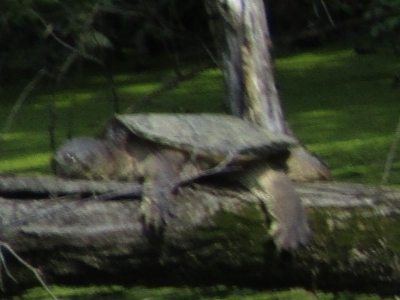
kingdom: Animalia
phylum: Chordata
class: Testudines
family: Chelydridae
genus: Chelydra
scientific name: Chelydra serpentina
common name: Common snapping turtle
